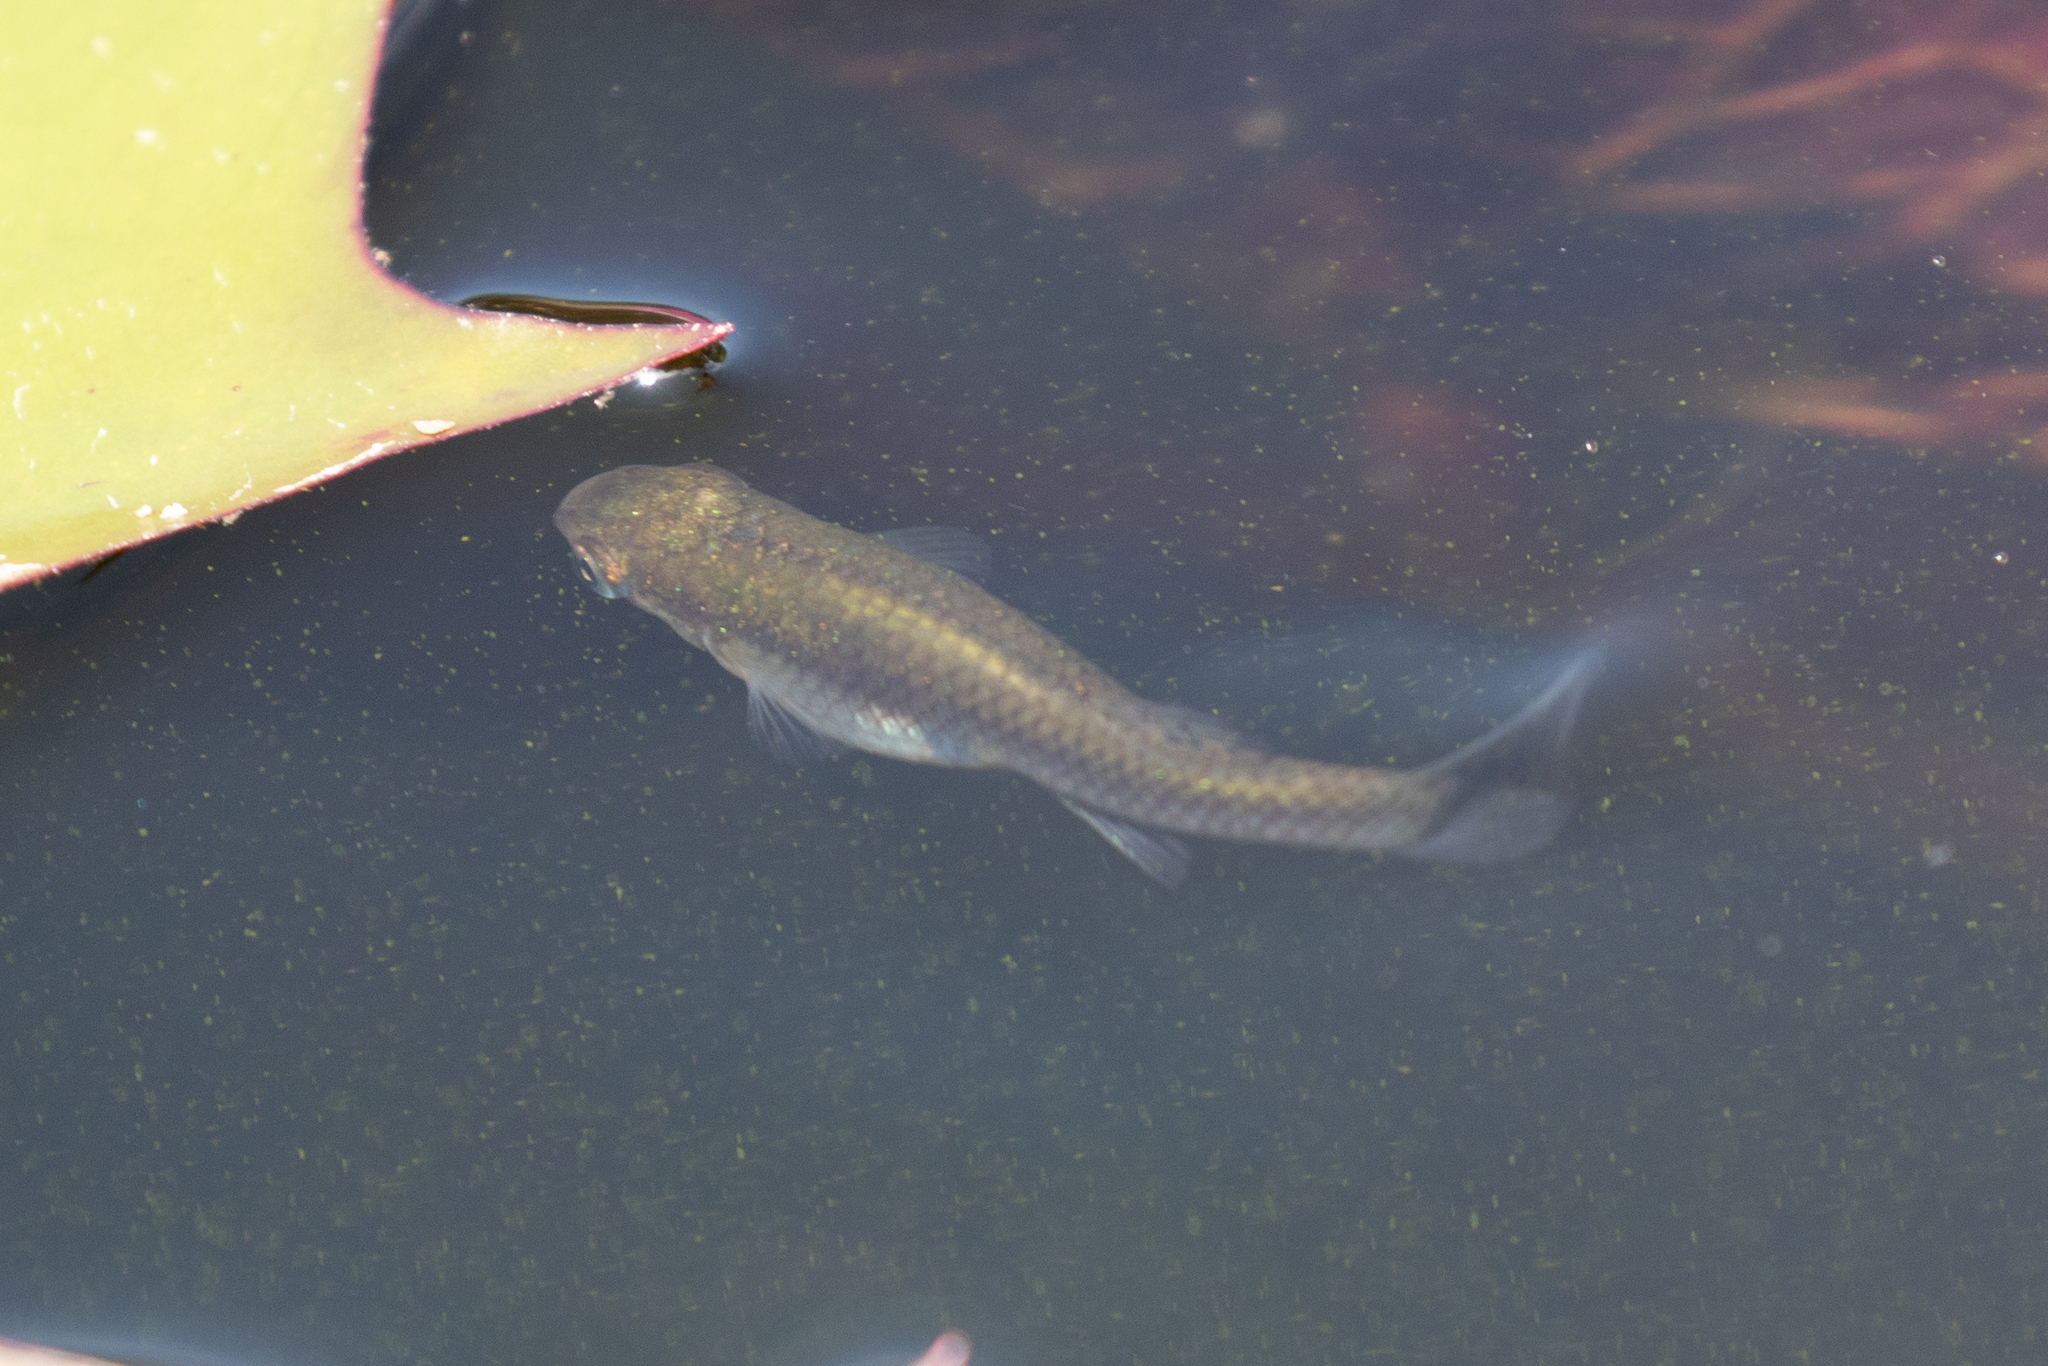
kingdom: Animalia
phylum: Chordata
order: Cyprinodontiformes
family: Poeciliidae
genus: Gambusia
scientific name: Gambusia holbrooki
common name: Eastern mosquitofish
